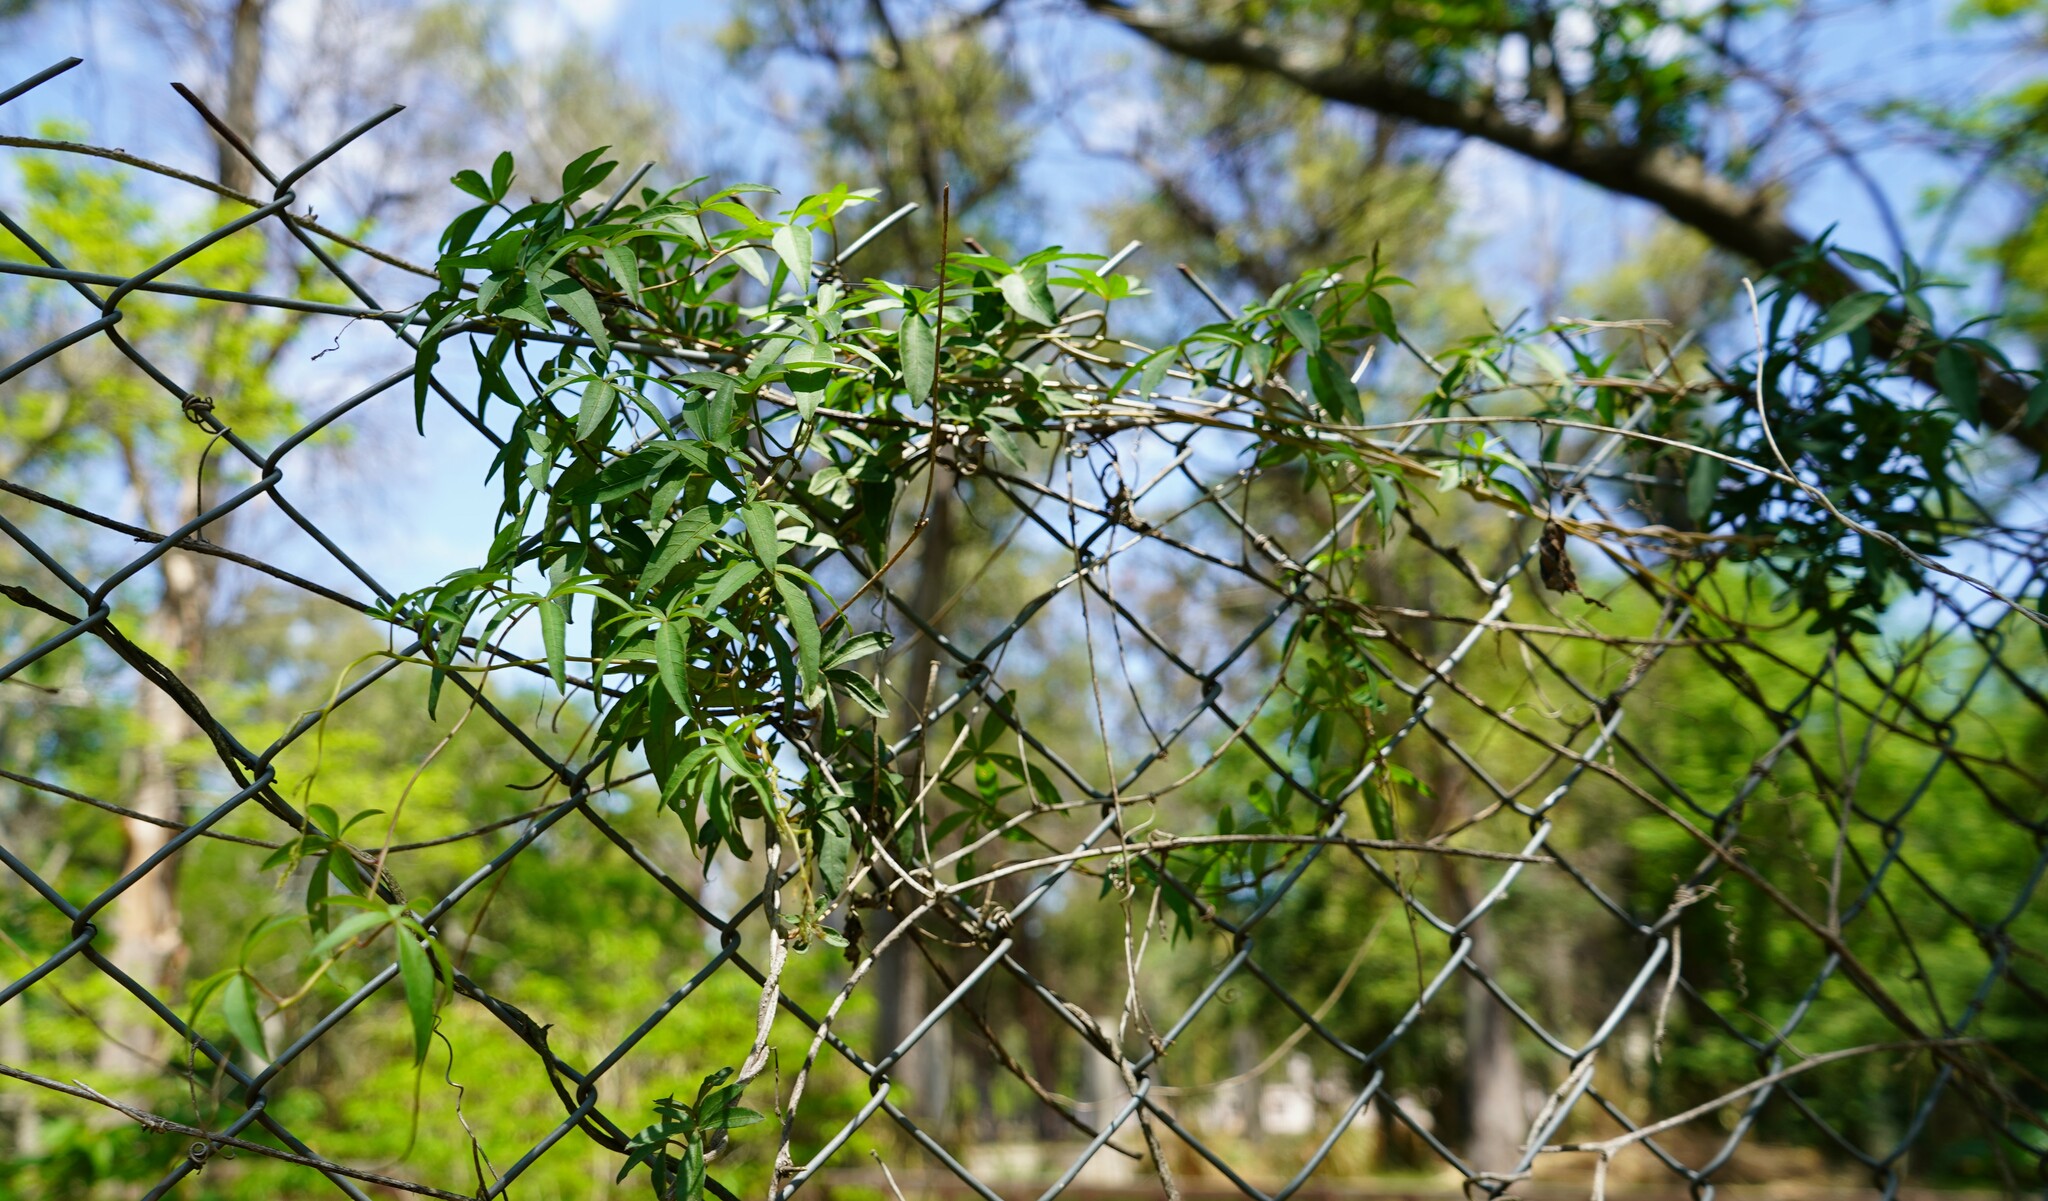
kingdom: Plantae
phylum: Tracheophyta
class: Magnoliopsida
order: Solanales
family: Convolvulaceae
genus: Ipomoea
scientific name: Ipomoea cairica
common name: Mile a minute vine
